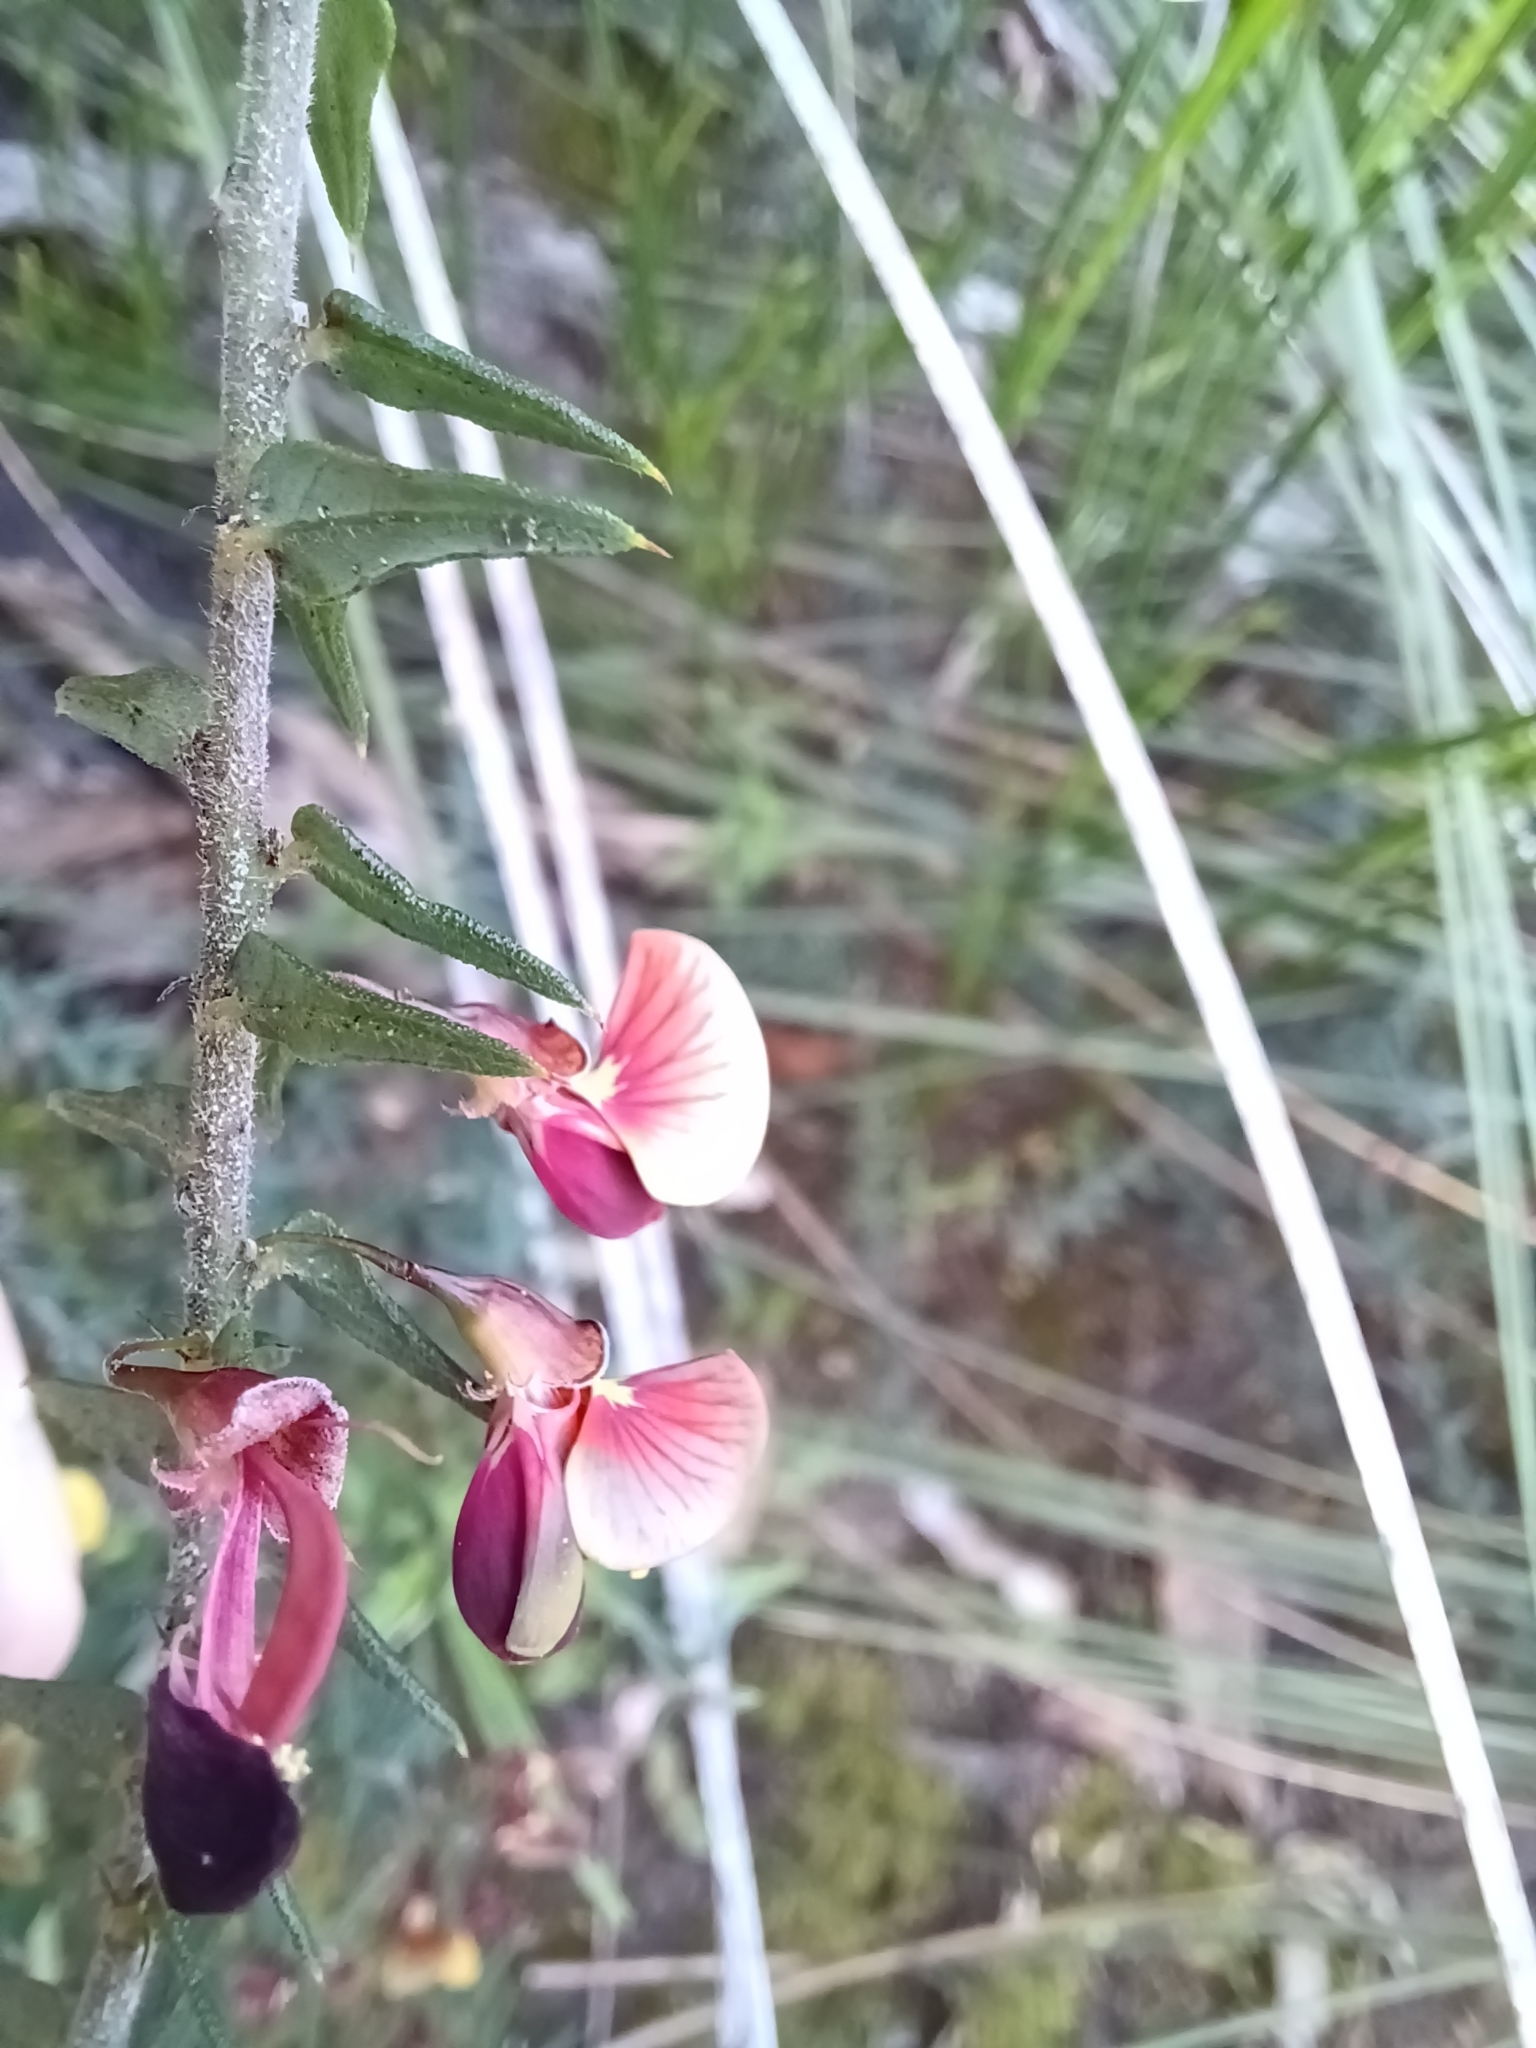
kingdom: Plantae
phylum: Tracheophyta
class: Magnoliopsida
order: Fabales
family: Fabaceae
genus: Bossiaea
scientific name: Bossiaea cinerea
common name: Showy bossiaea
